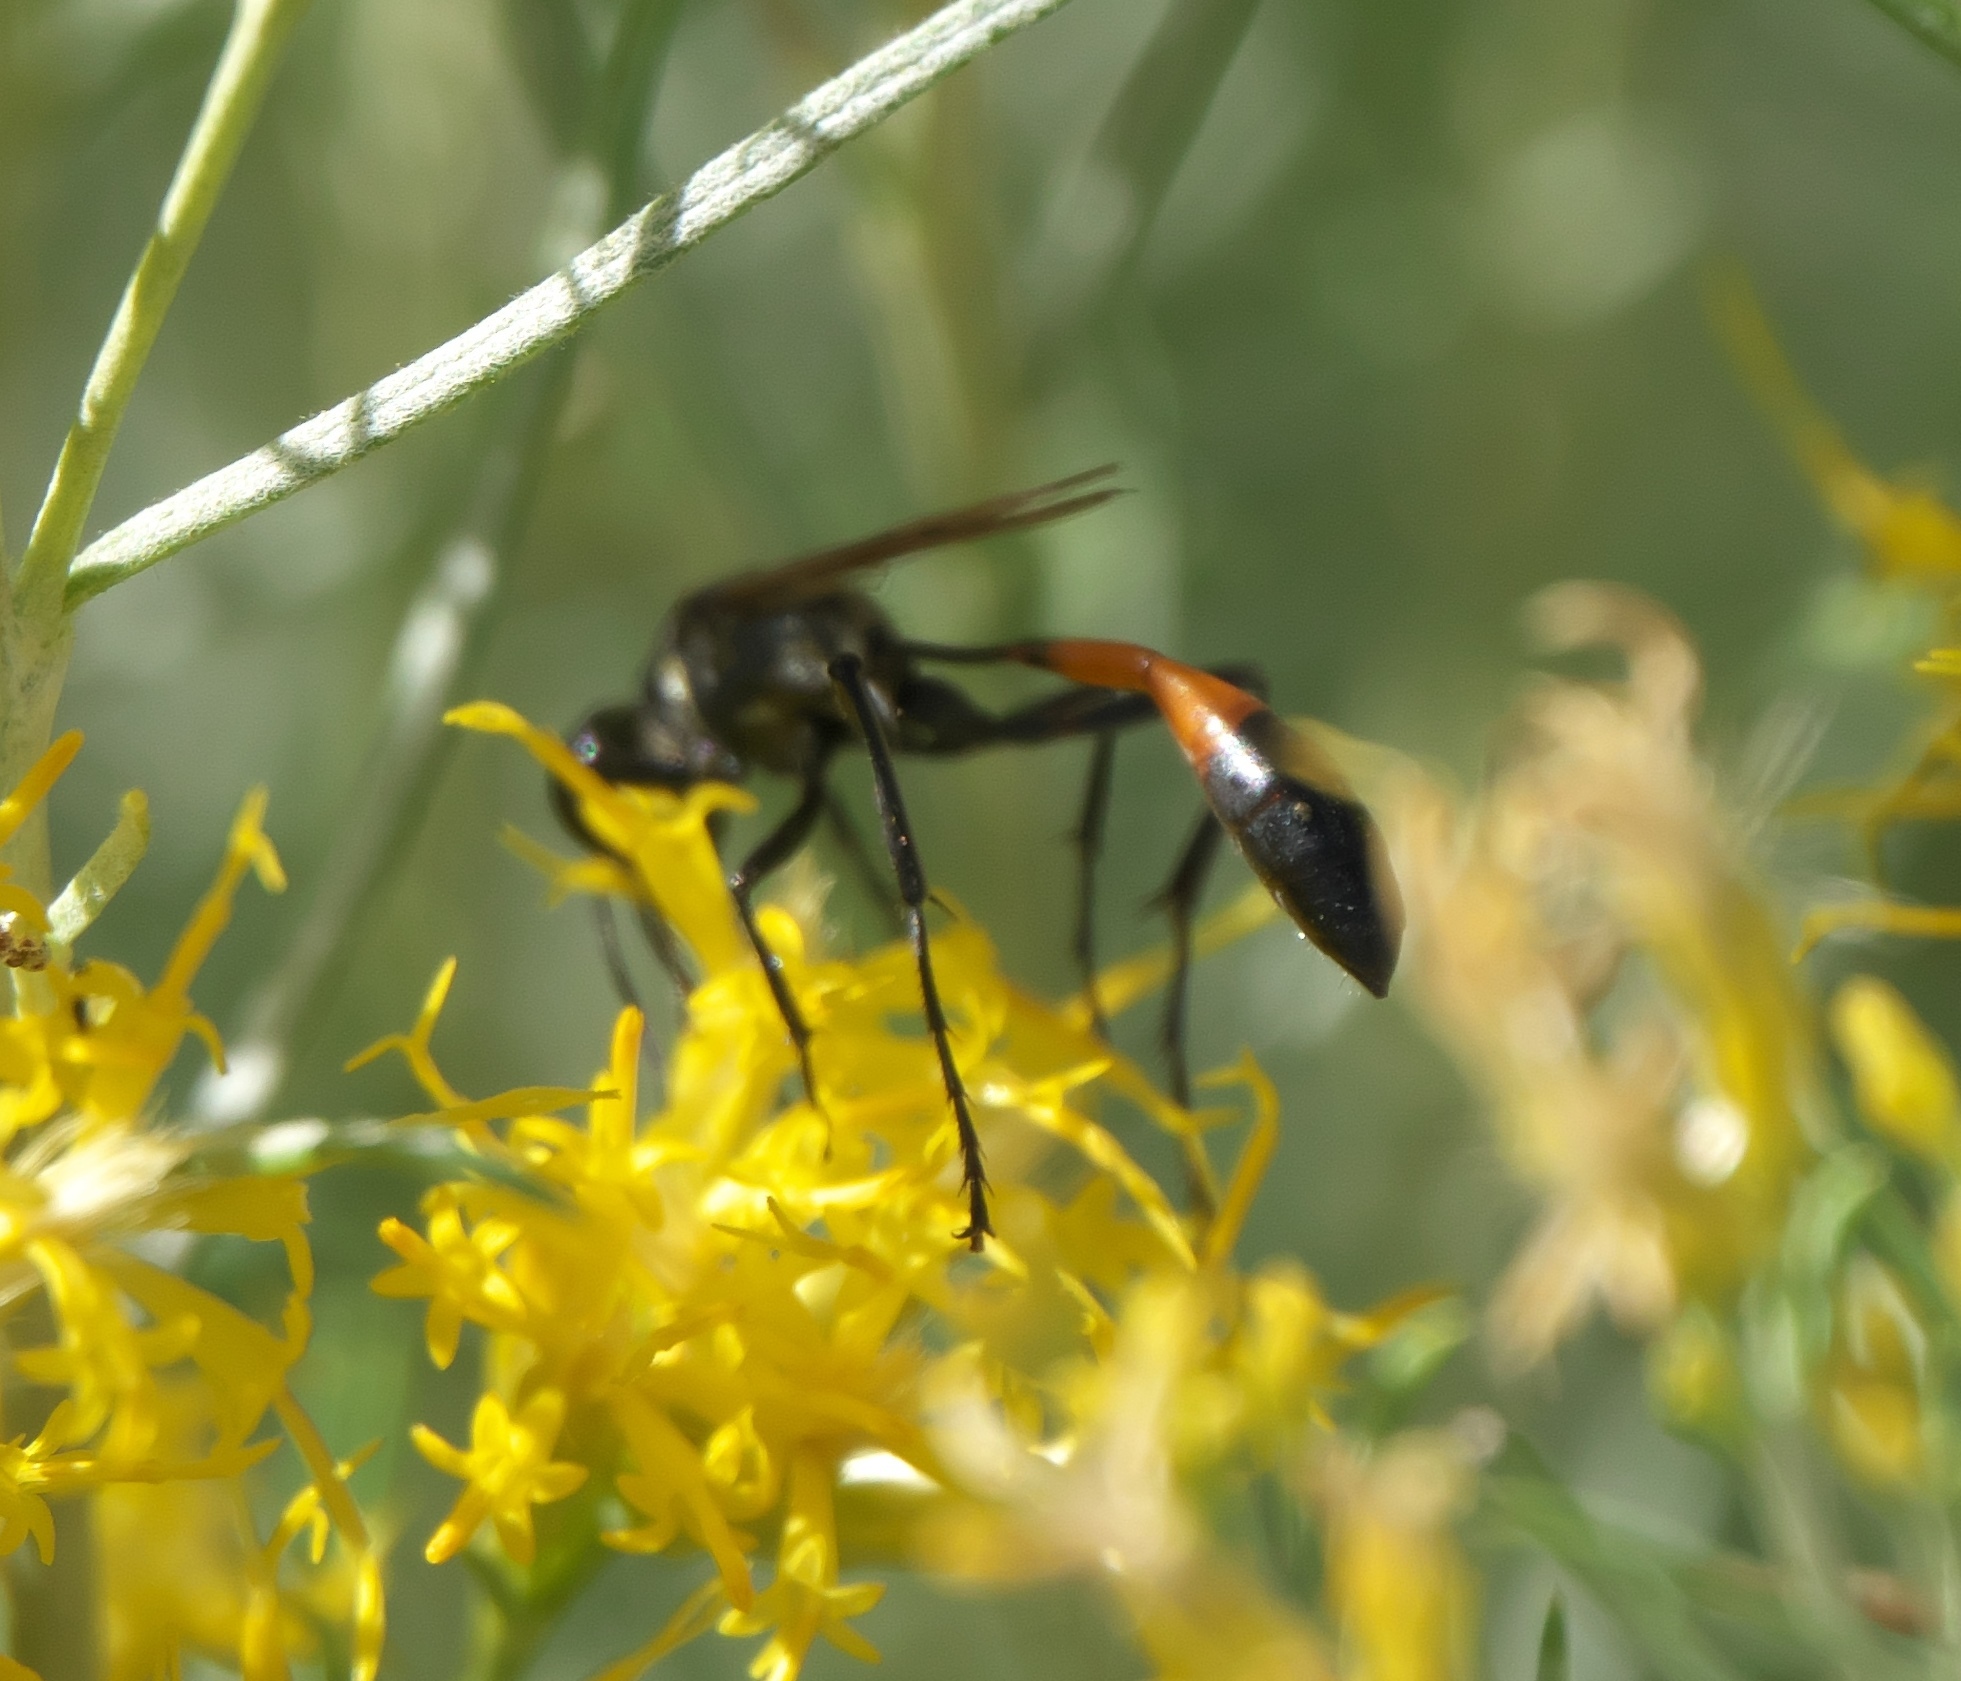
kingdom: Animalia
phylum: Arthropoda
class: Insecta
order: Hymenoptera
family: Sphecidae
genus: Ammophila
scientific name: Ammophila placida
